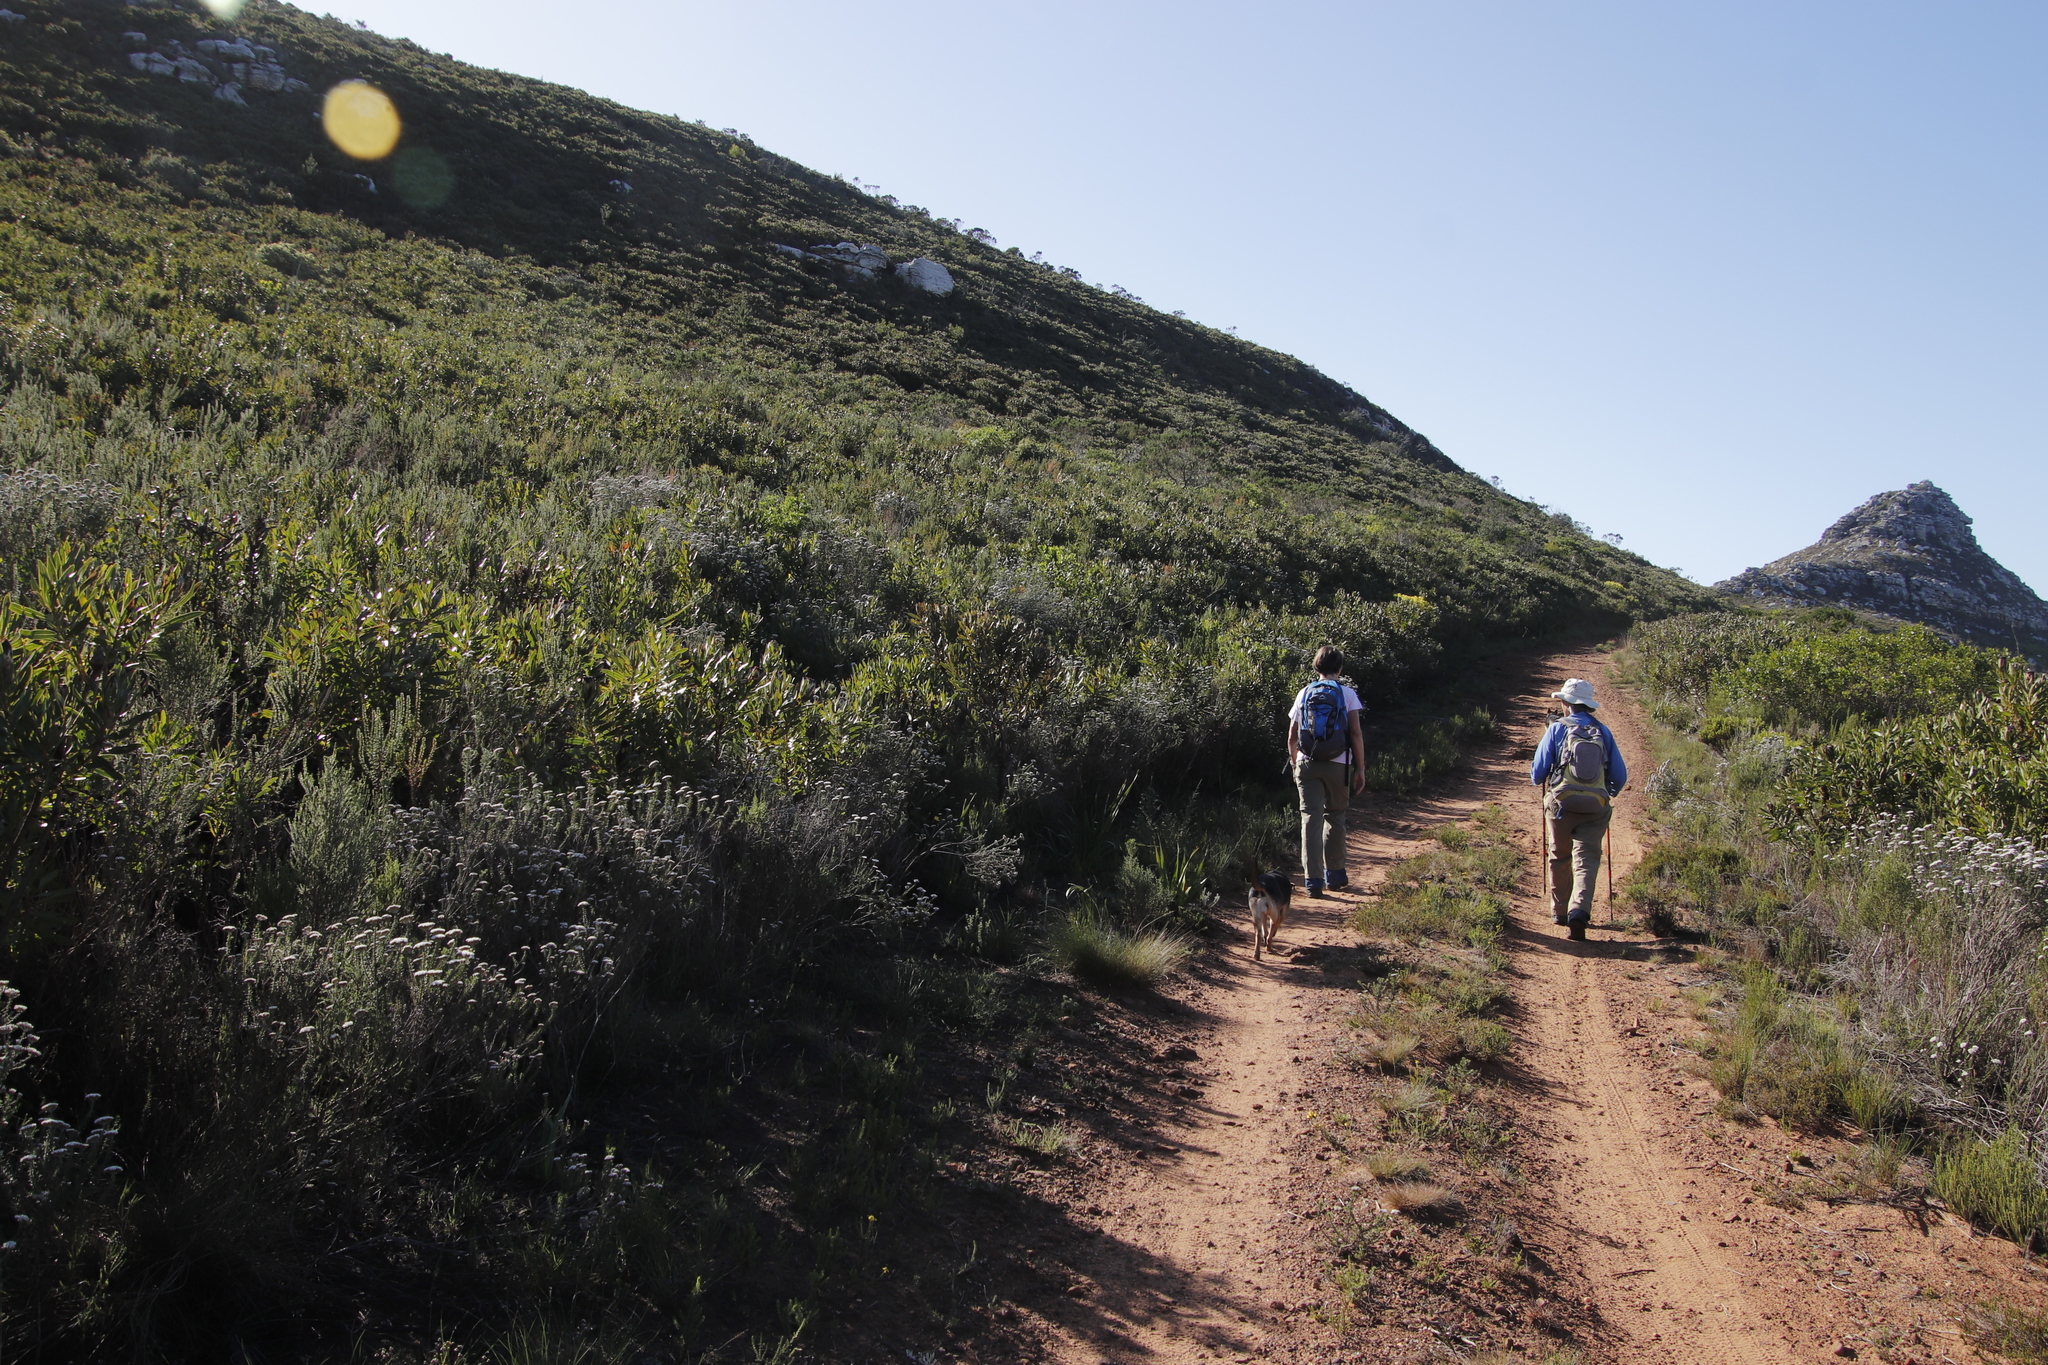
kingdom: Plantae
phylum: Tracheophyta
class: Magnoliopsida
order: Proteales
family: Proteaceae
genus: Protea
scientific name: Protea lepidocarpodendron
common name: Black-bearded protea
